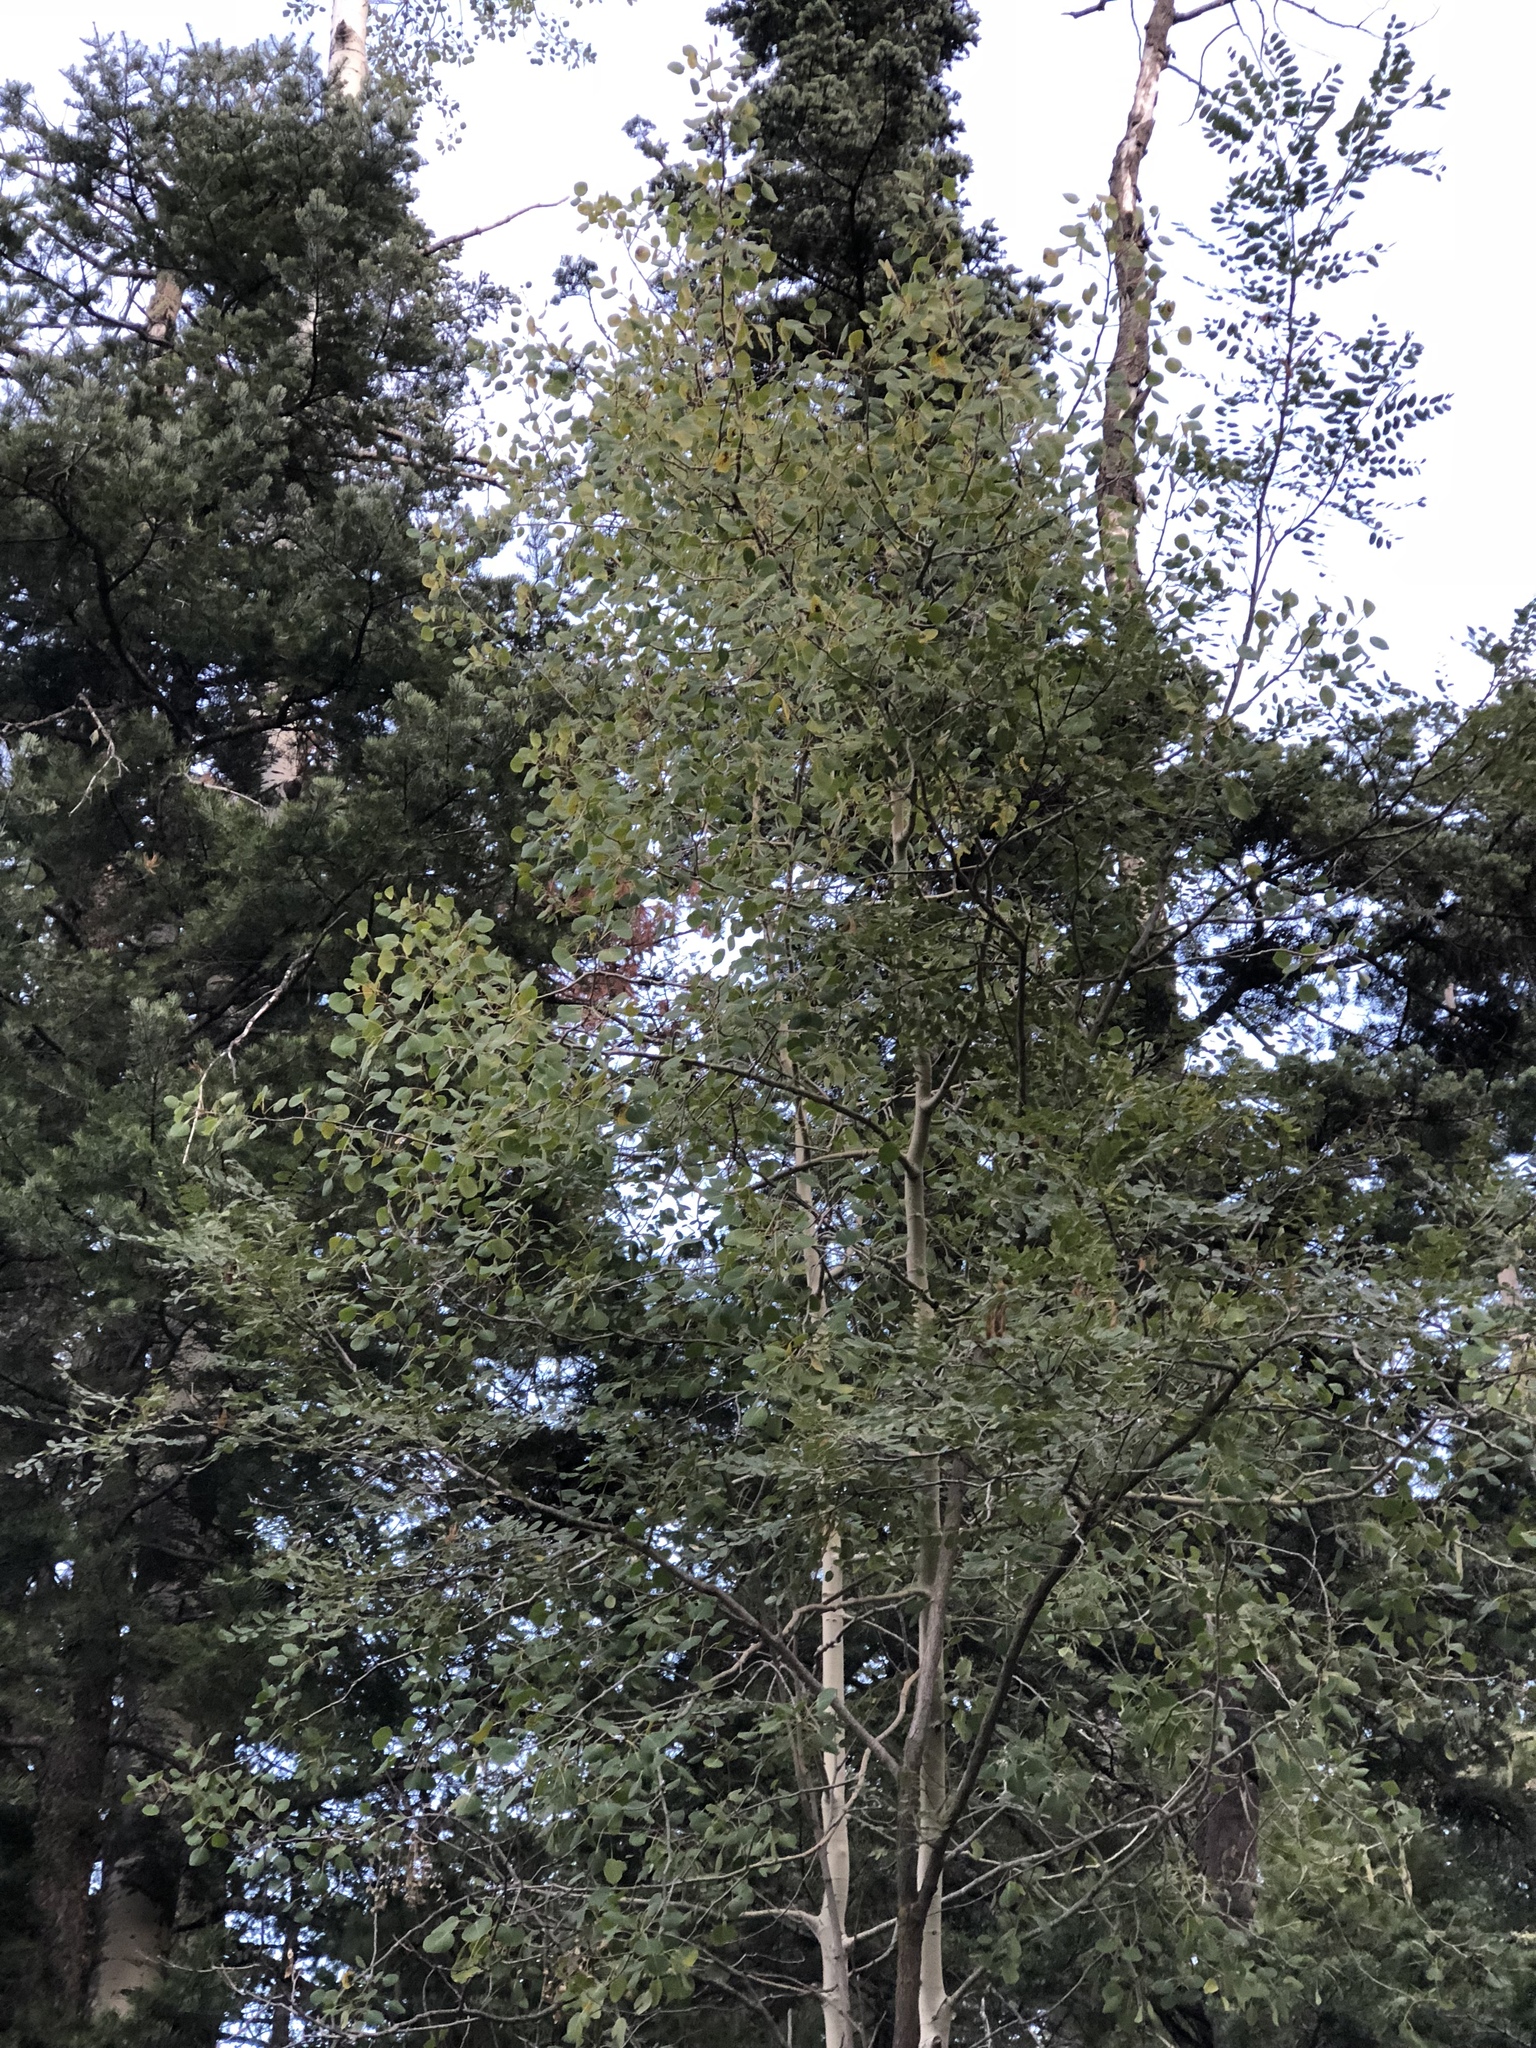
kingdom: Plantae
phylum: Tracheophyta
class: Magnoliopsida
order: Malpighiales
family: Salicaceae
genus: Populus
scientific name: Populus tremuloides
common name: Quaking aspen
